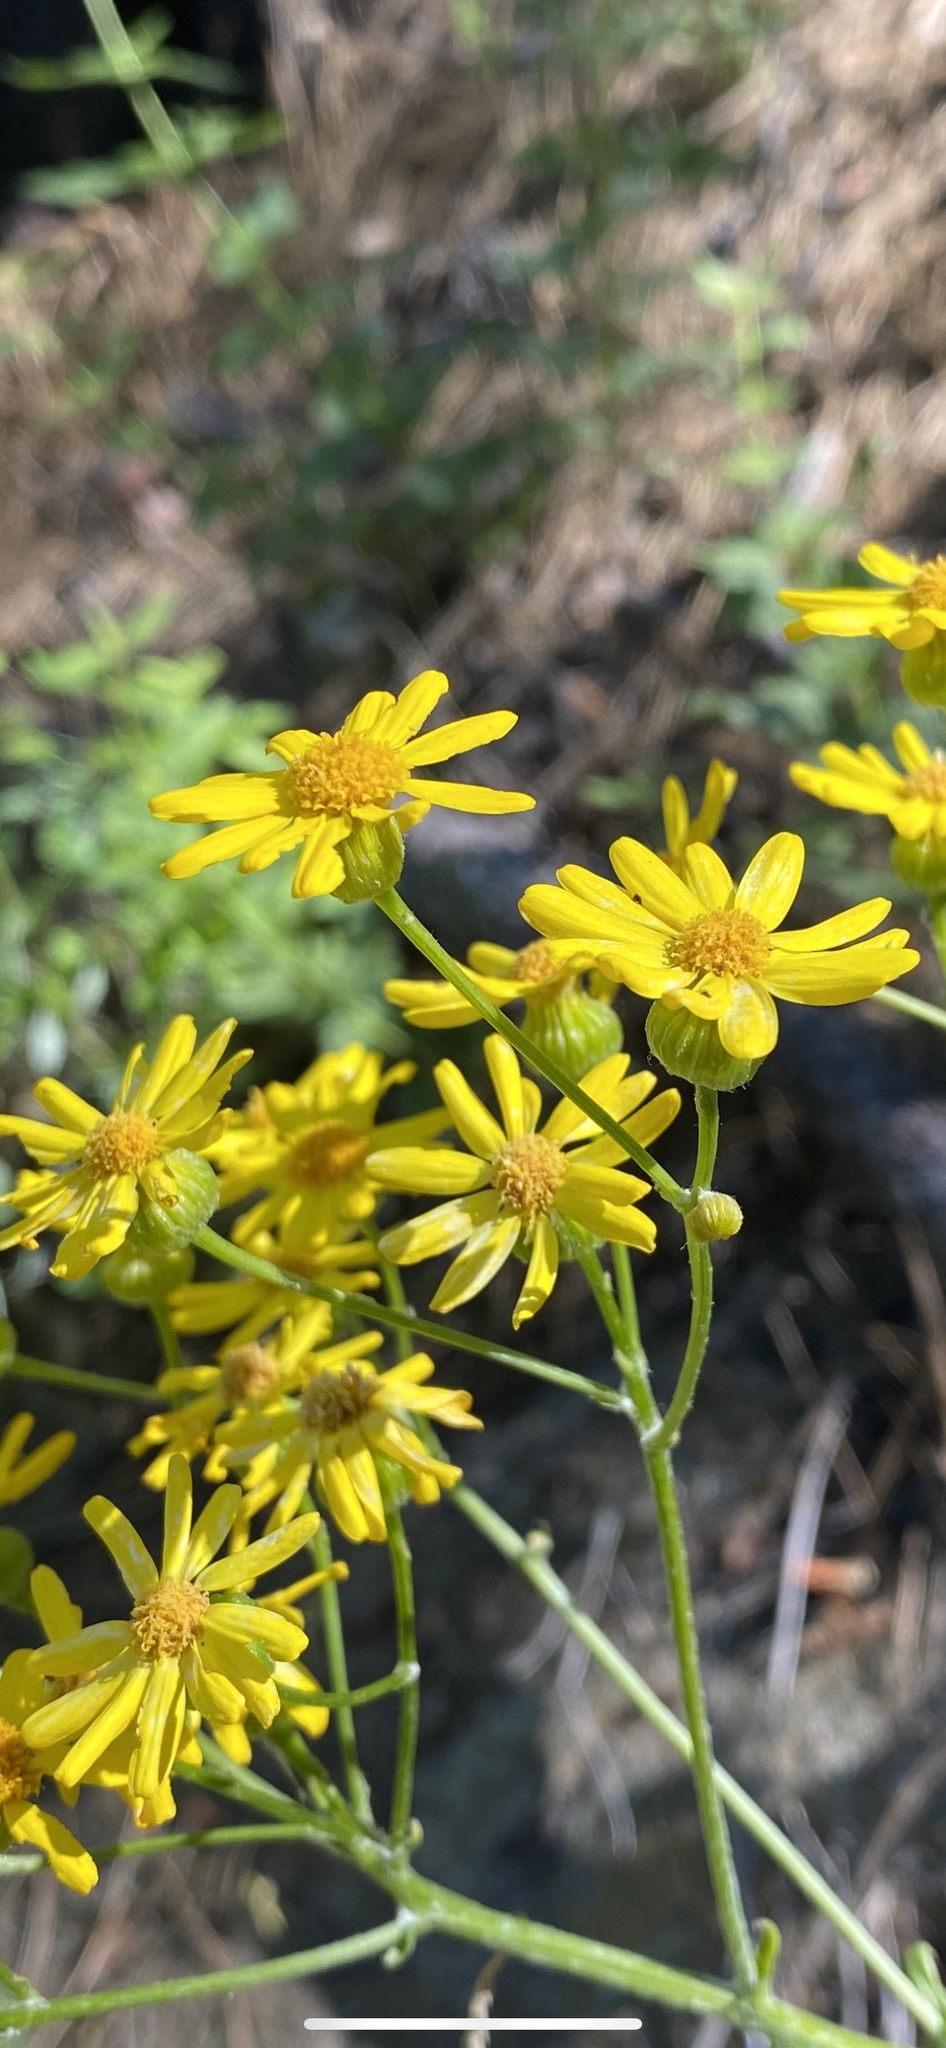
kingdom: Plantae
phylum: Tracheophyta
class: Magnoliopsida
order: Asterales
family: Asteraceae
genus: Packera
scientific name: Packera neomexicana
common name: New mexico butterweed
